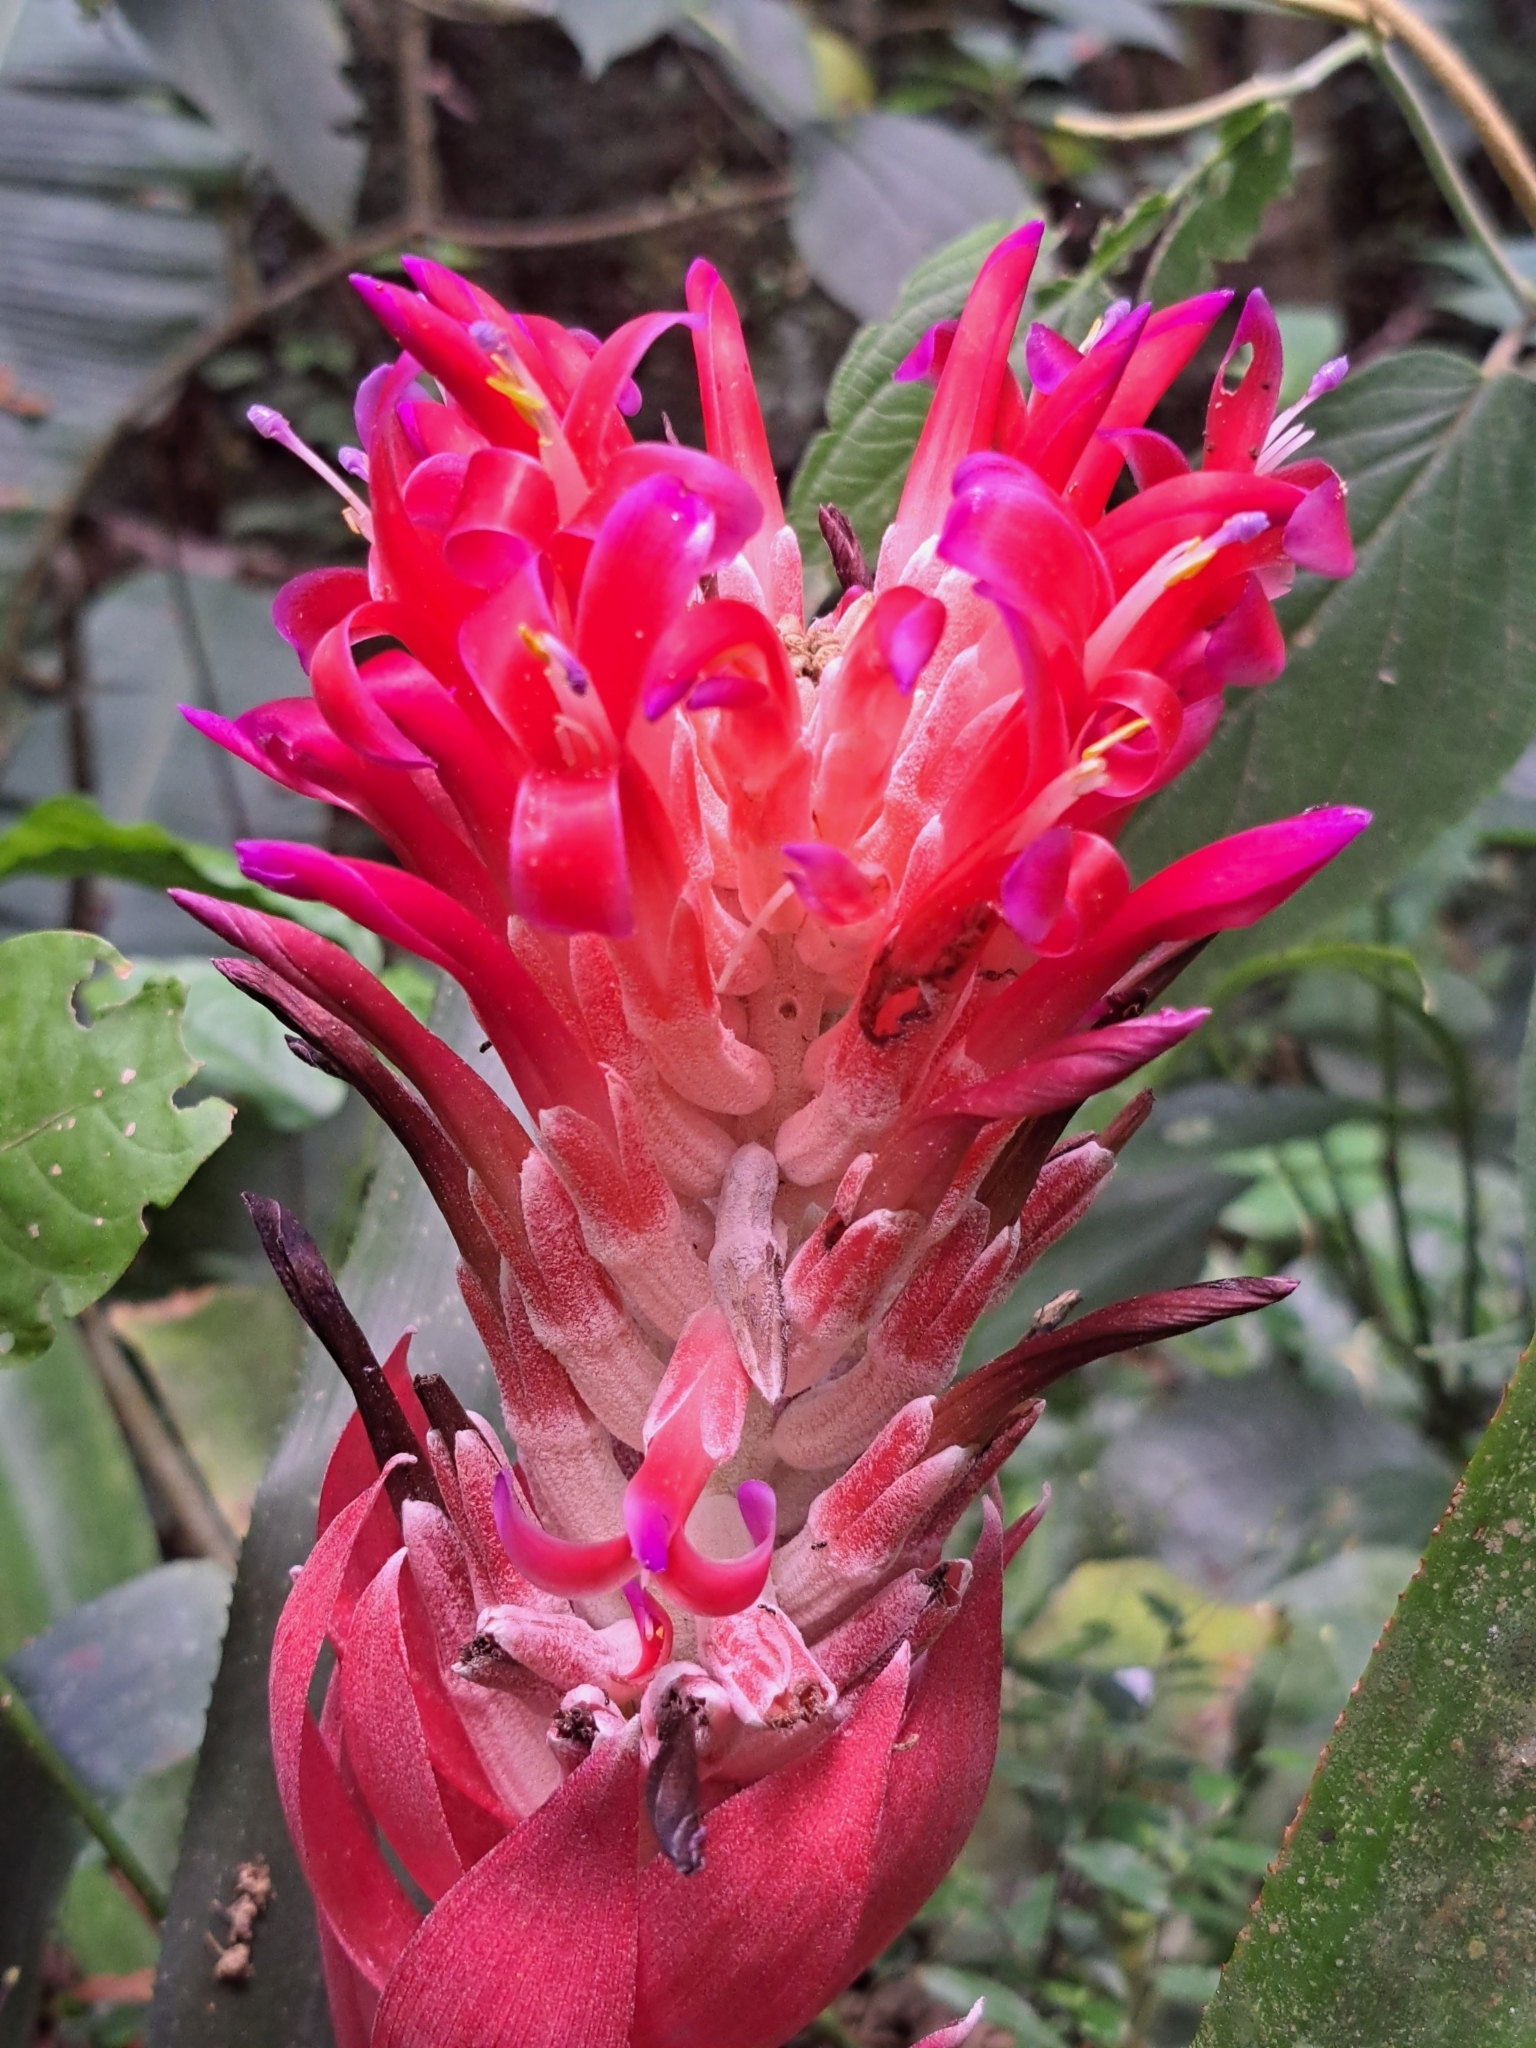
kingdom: Plantae
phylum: Tracheophyta
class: Liliopsida
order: Poales
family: Bromeliaceae
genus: Billbergia
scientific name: Billbergia pyramidalis
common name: Foolproofplant
